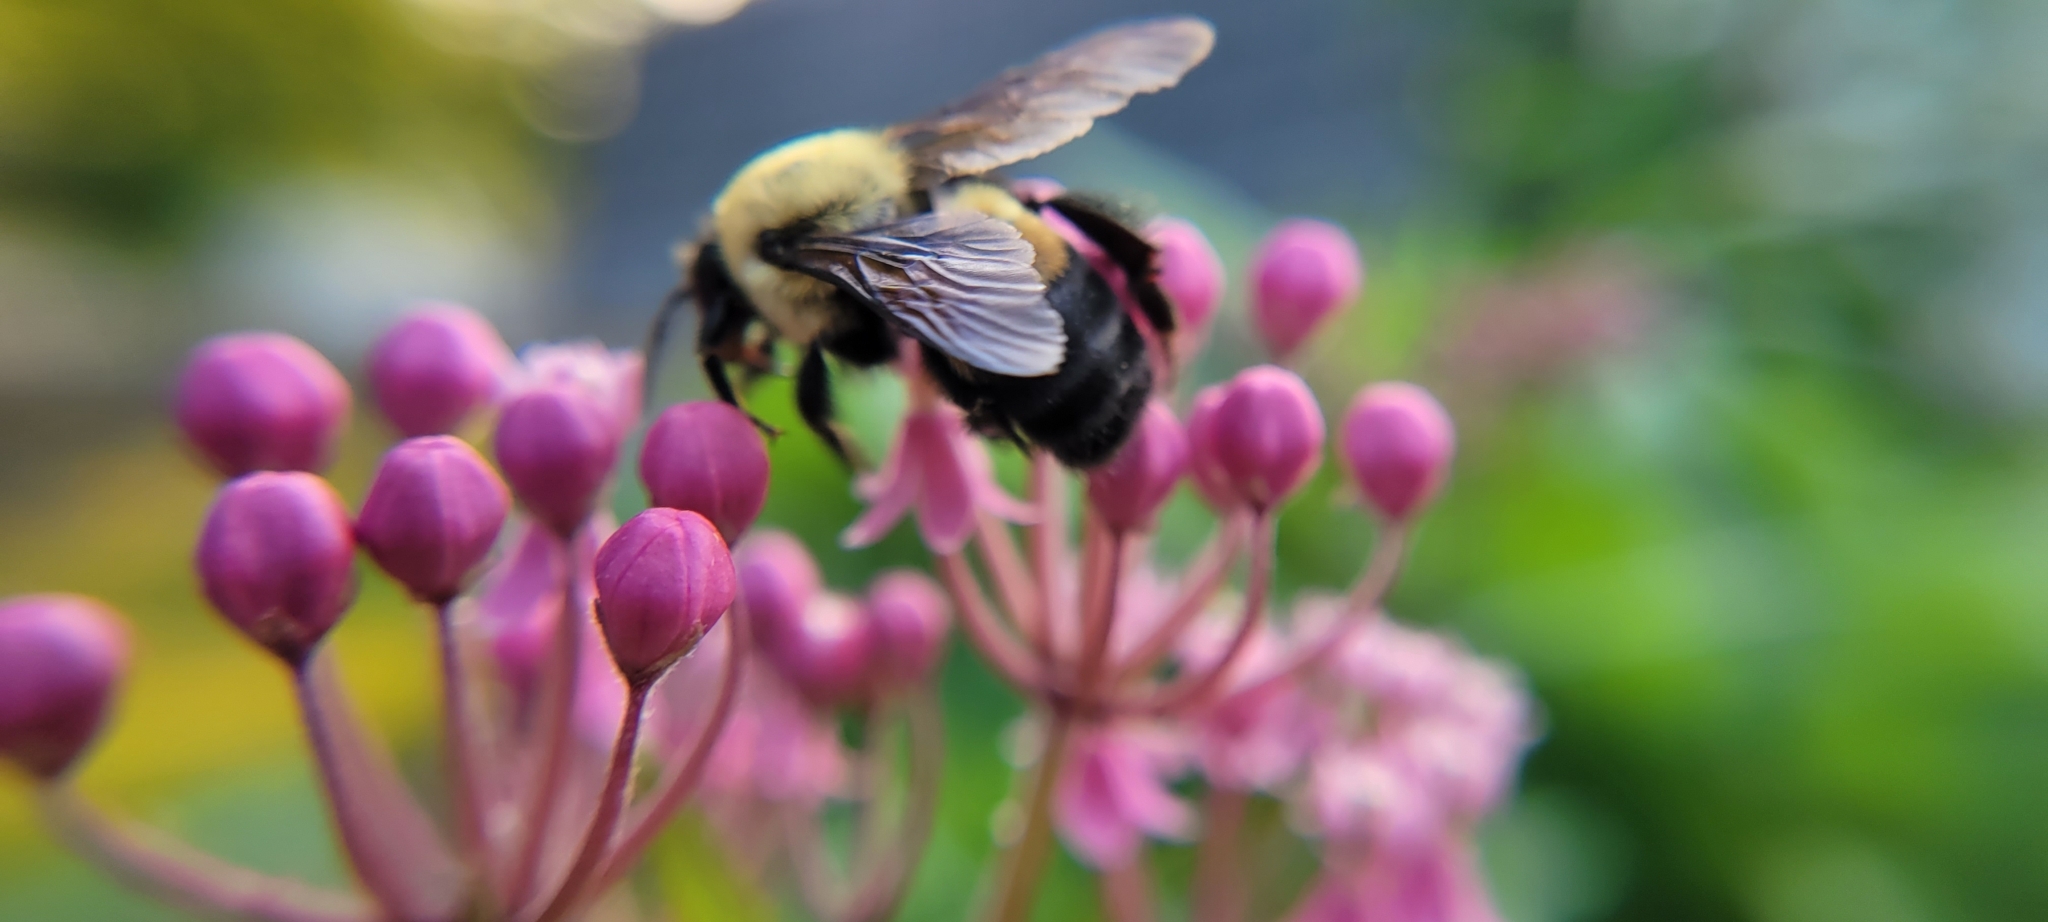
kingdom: Animalia
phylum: Arthropoda
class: Insecta
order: Hymenoptera
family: Apidae
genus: Bombus
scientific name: Bombus griseocollis
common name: Brown-belted bumble bee
